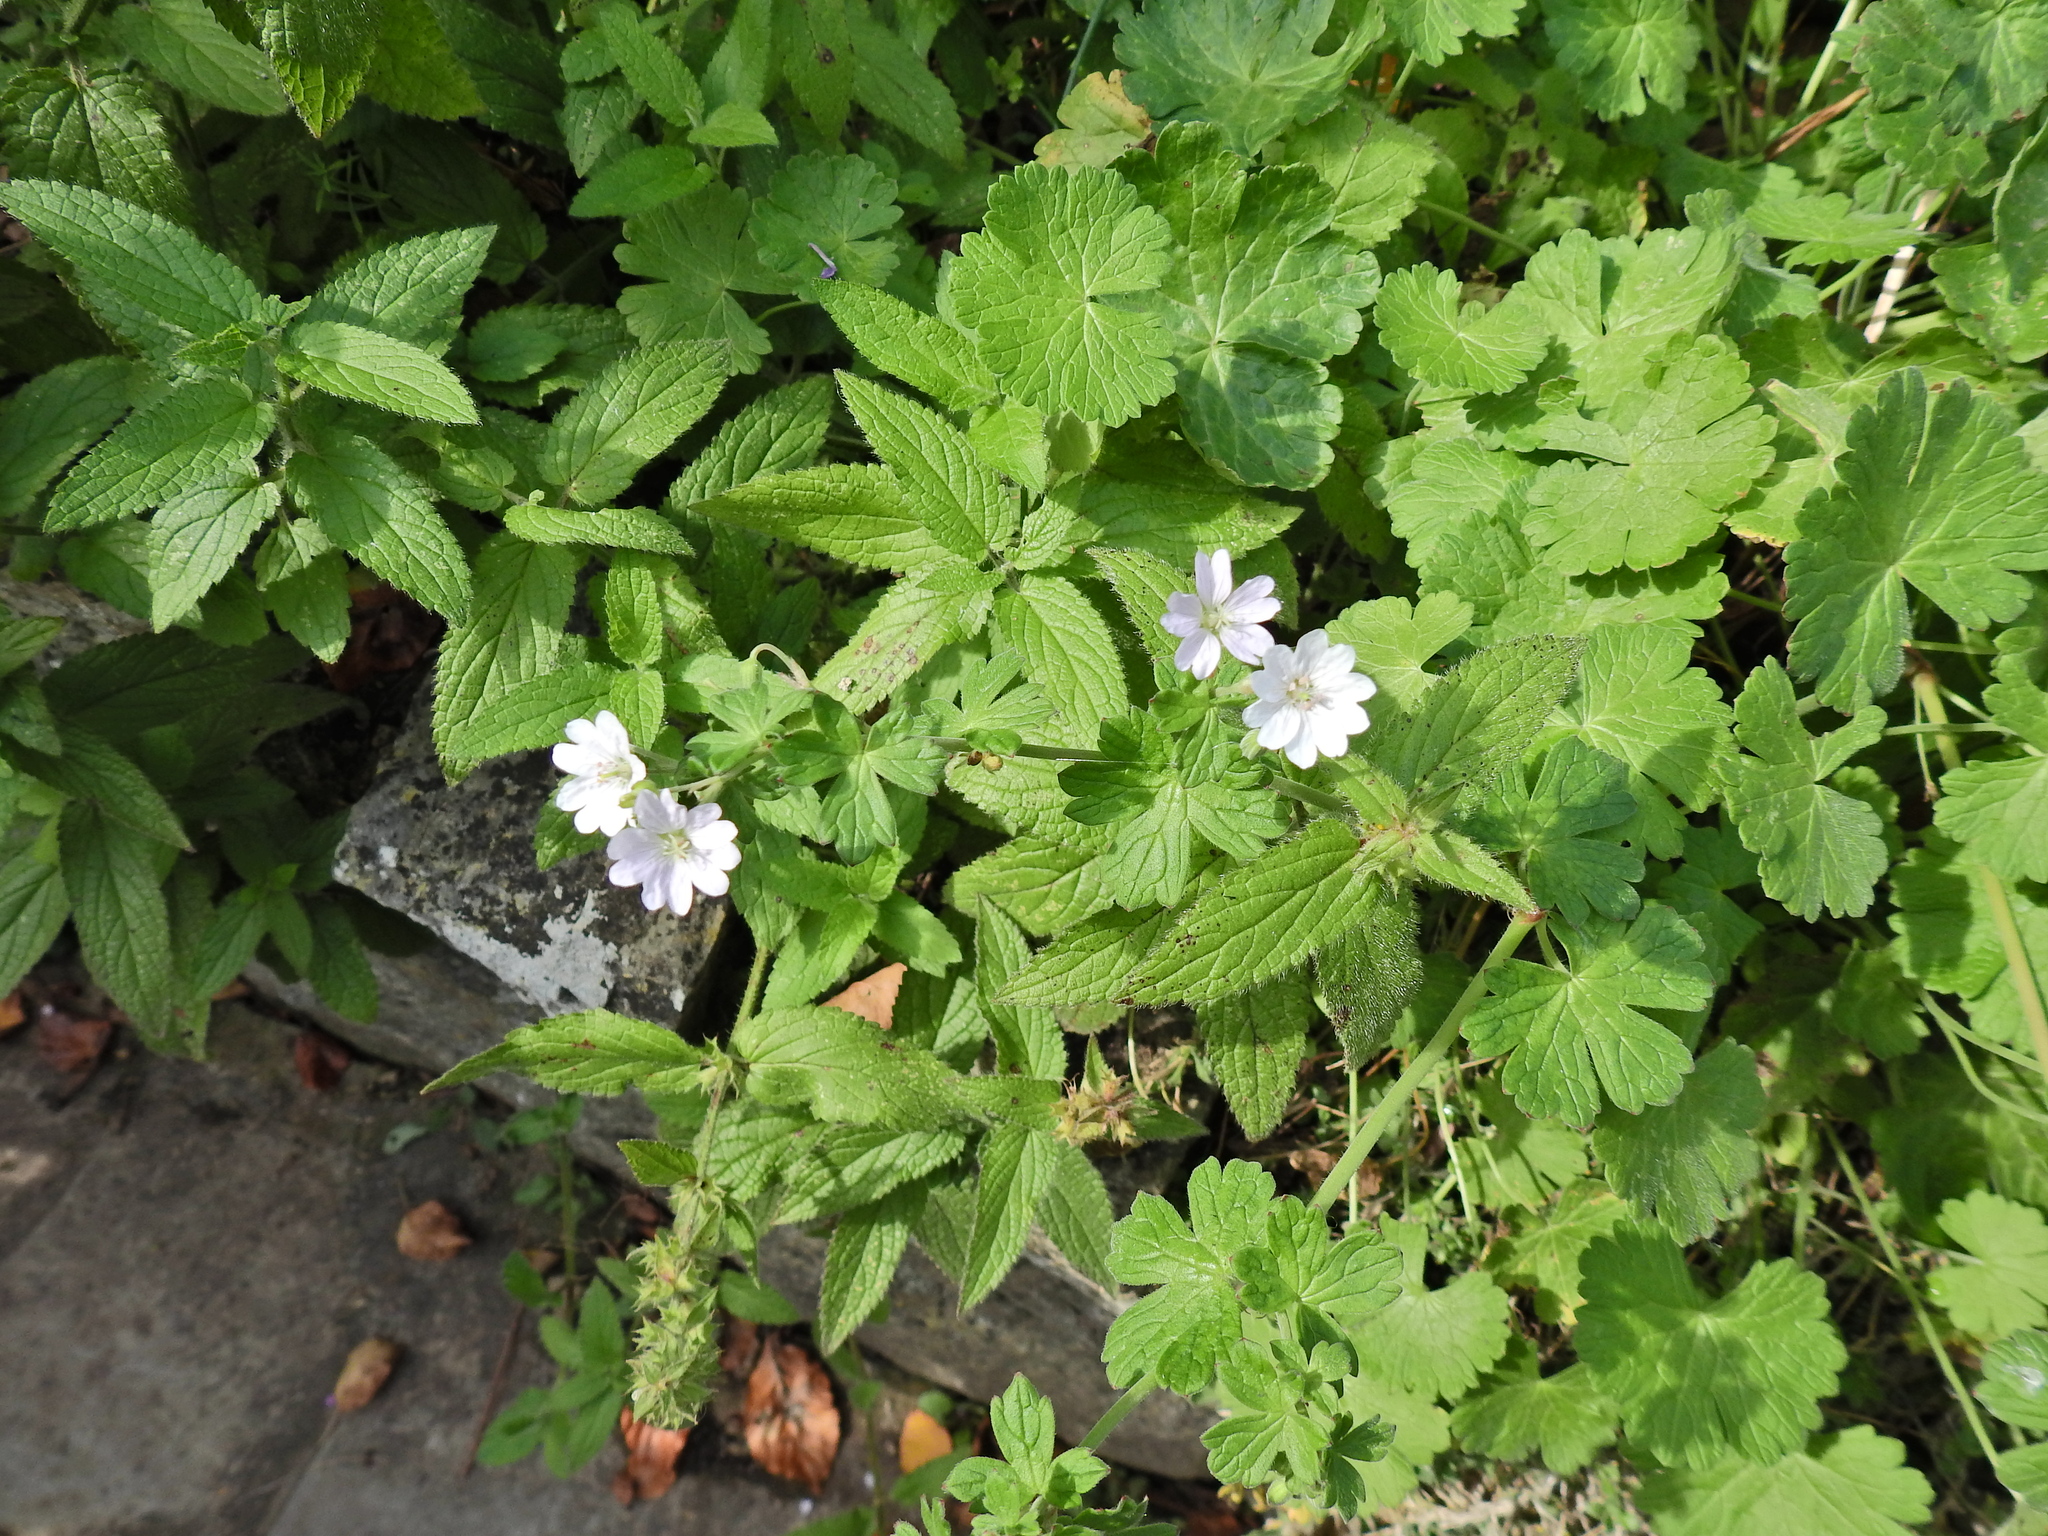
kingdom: Plantae
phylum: Tracheophyta
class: Magnoliopsida
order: Geraniales
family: Geraniaceae
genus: Geranium
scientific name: Geranium pyrenaicum
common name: Hedgerow crane's-bill
